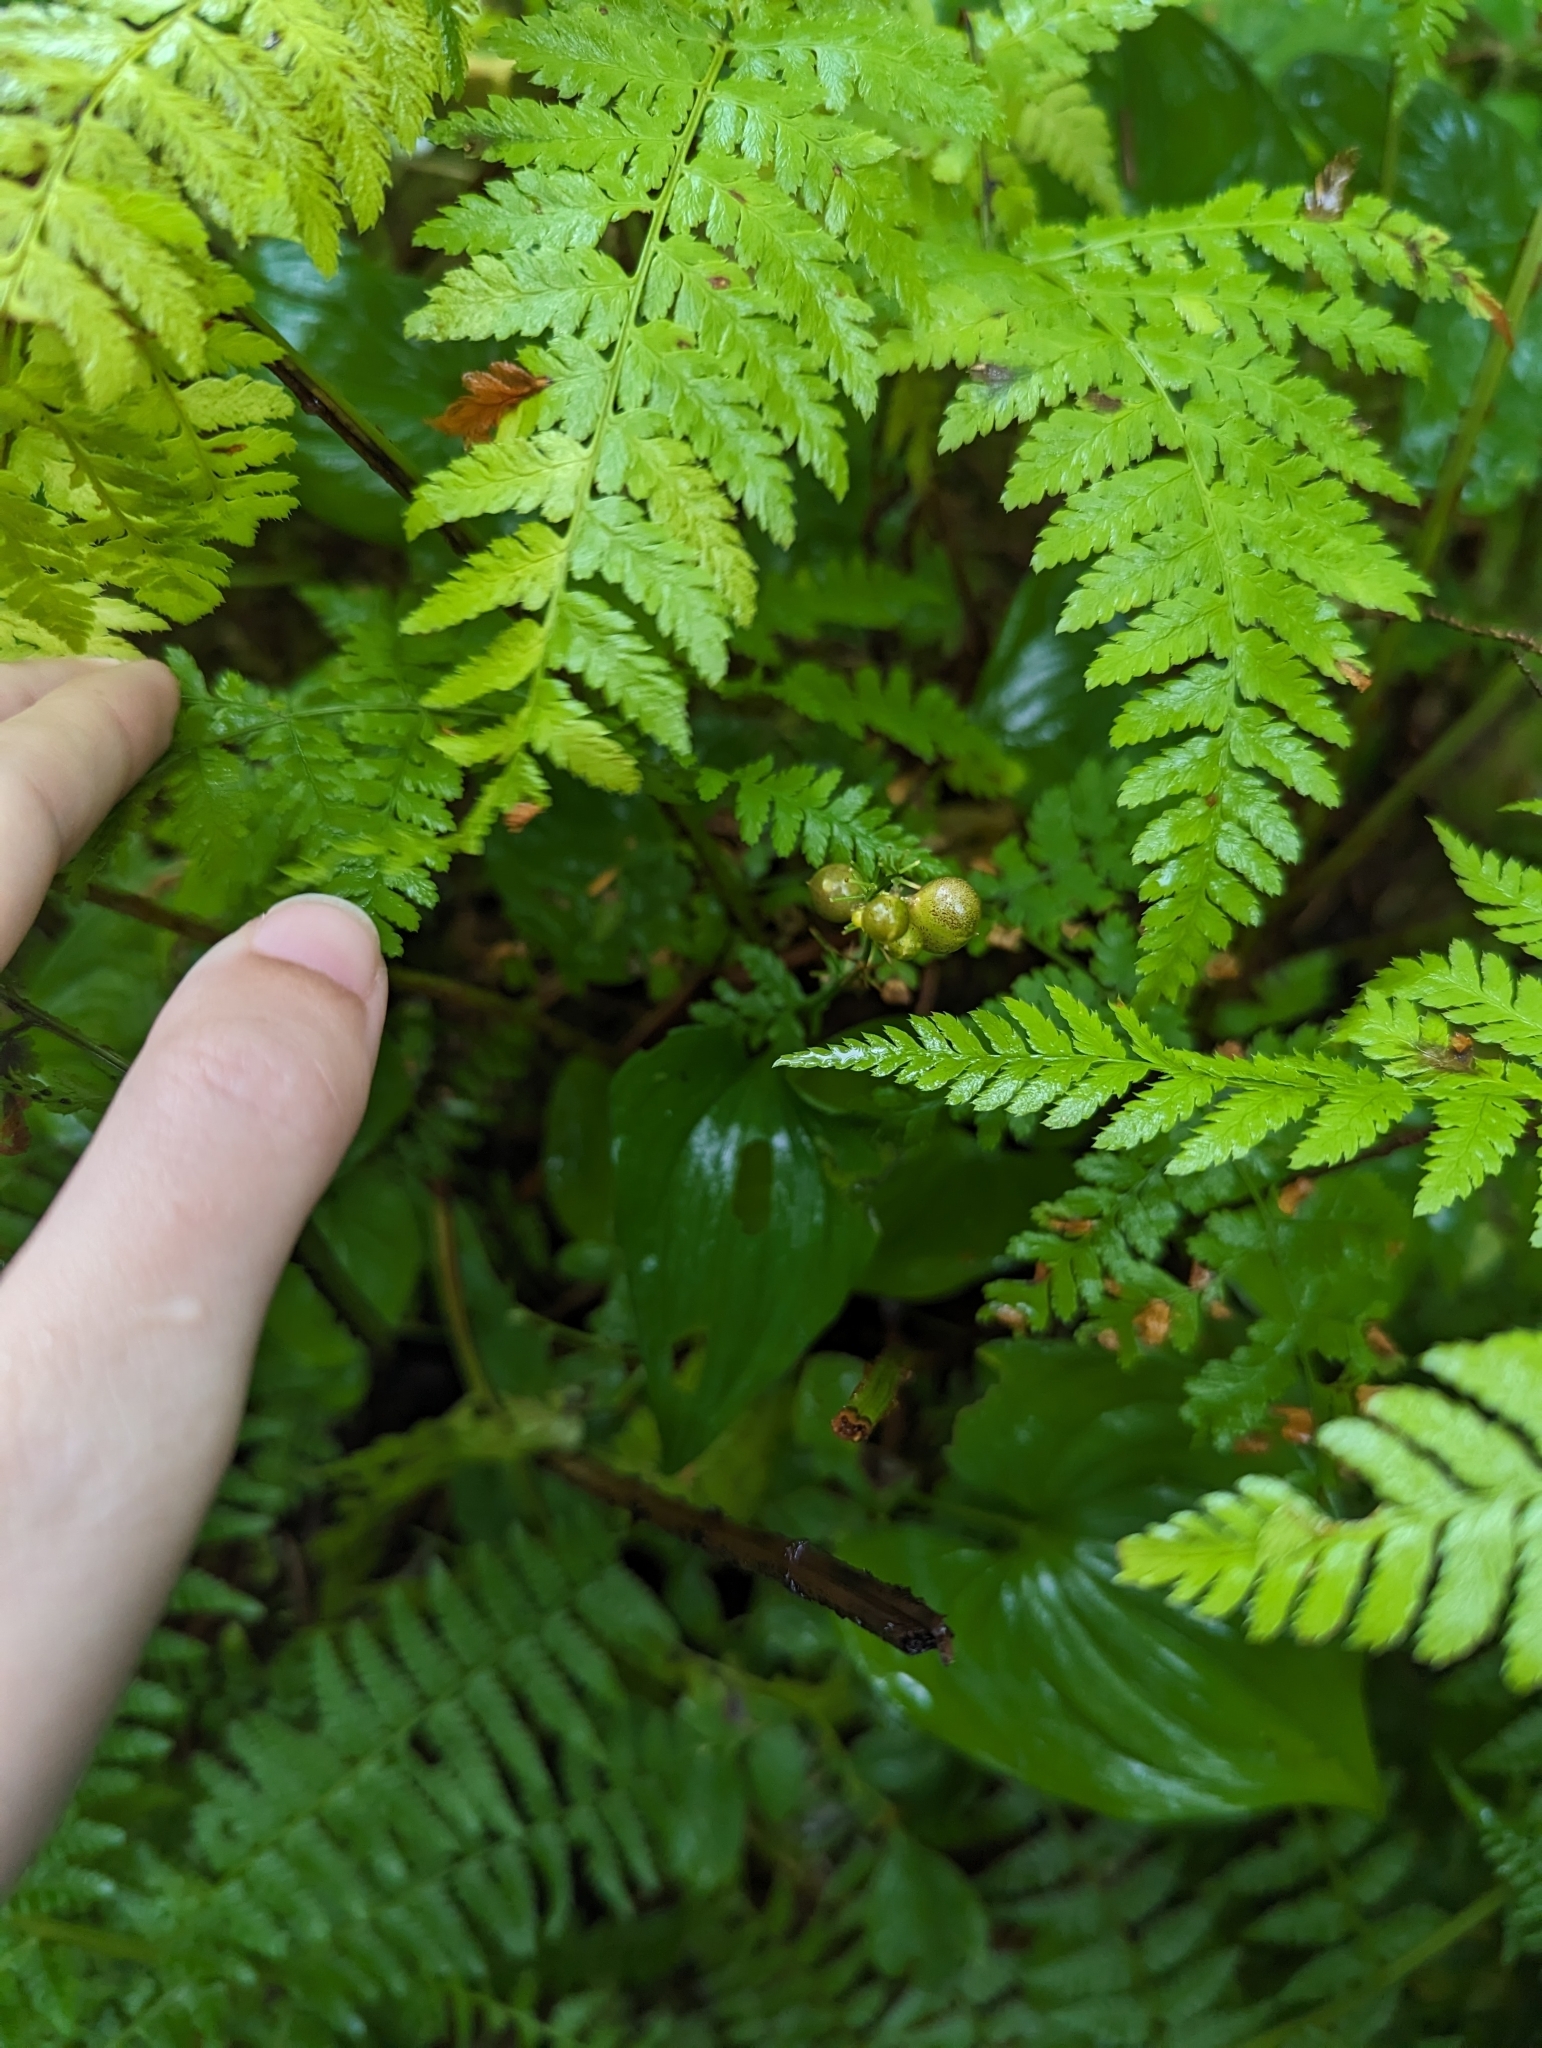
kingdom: Plantae
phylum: Tracheophyta
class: Liliopsida
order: Asparagales
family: Asparagaceae
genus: Maianthemum
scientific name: Maianthemum dilatatum
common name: False lily-of-the-valley
